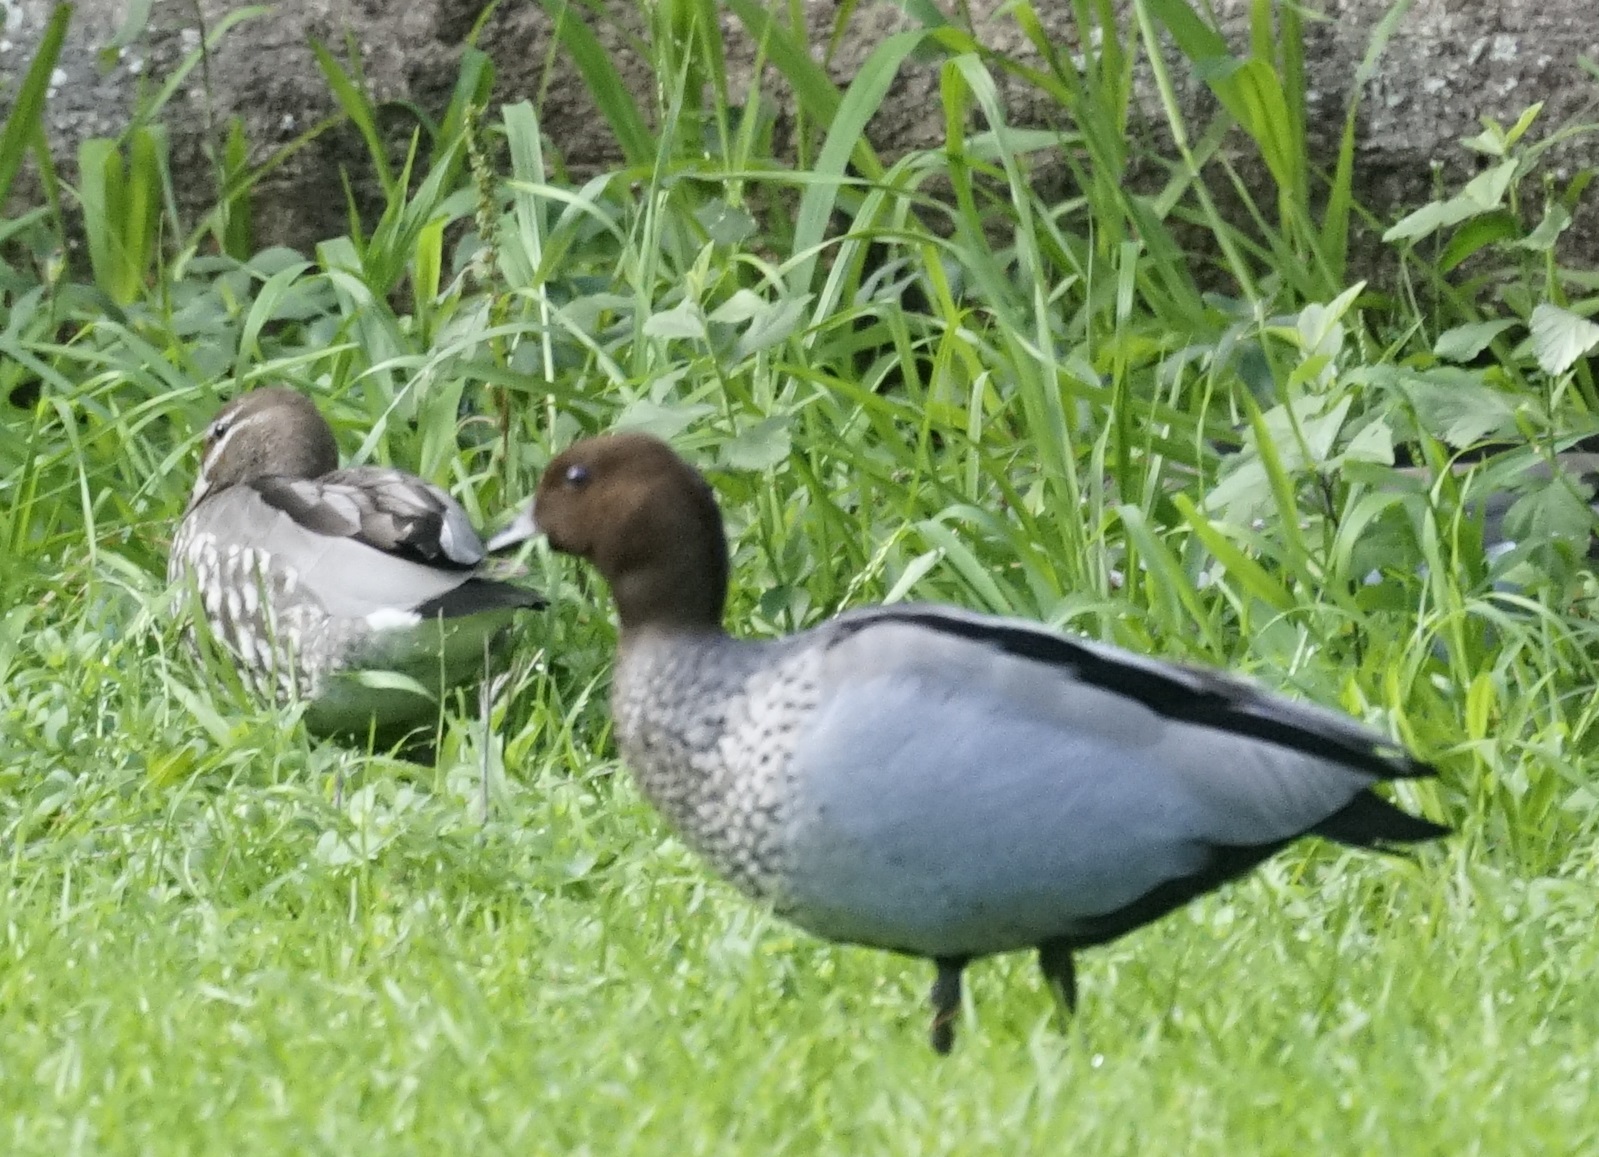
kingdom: Animalia
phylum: Chordata
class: Aves
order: Anseriformes
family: Anatidae
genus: Chenonetta
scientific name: Chenonetta jubata
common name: Maned duck
